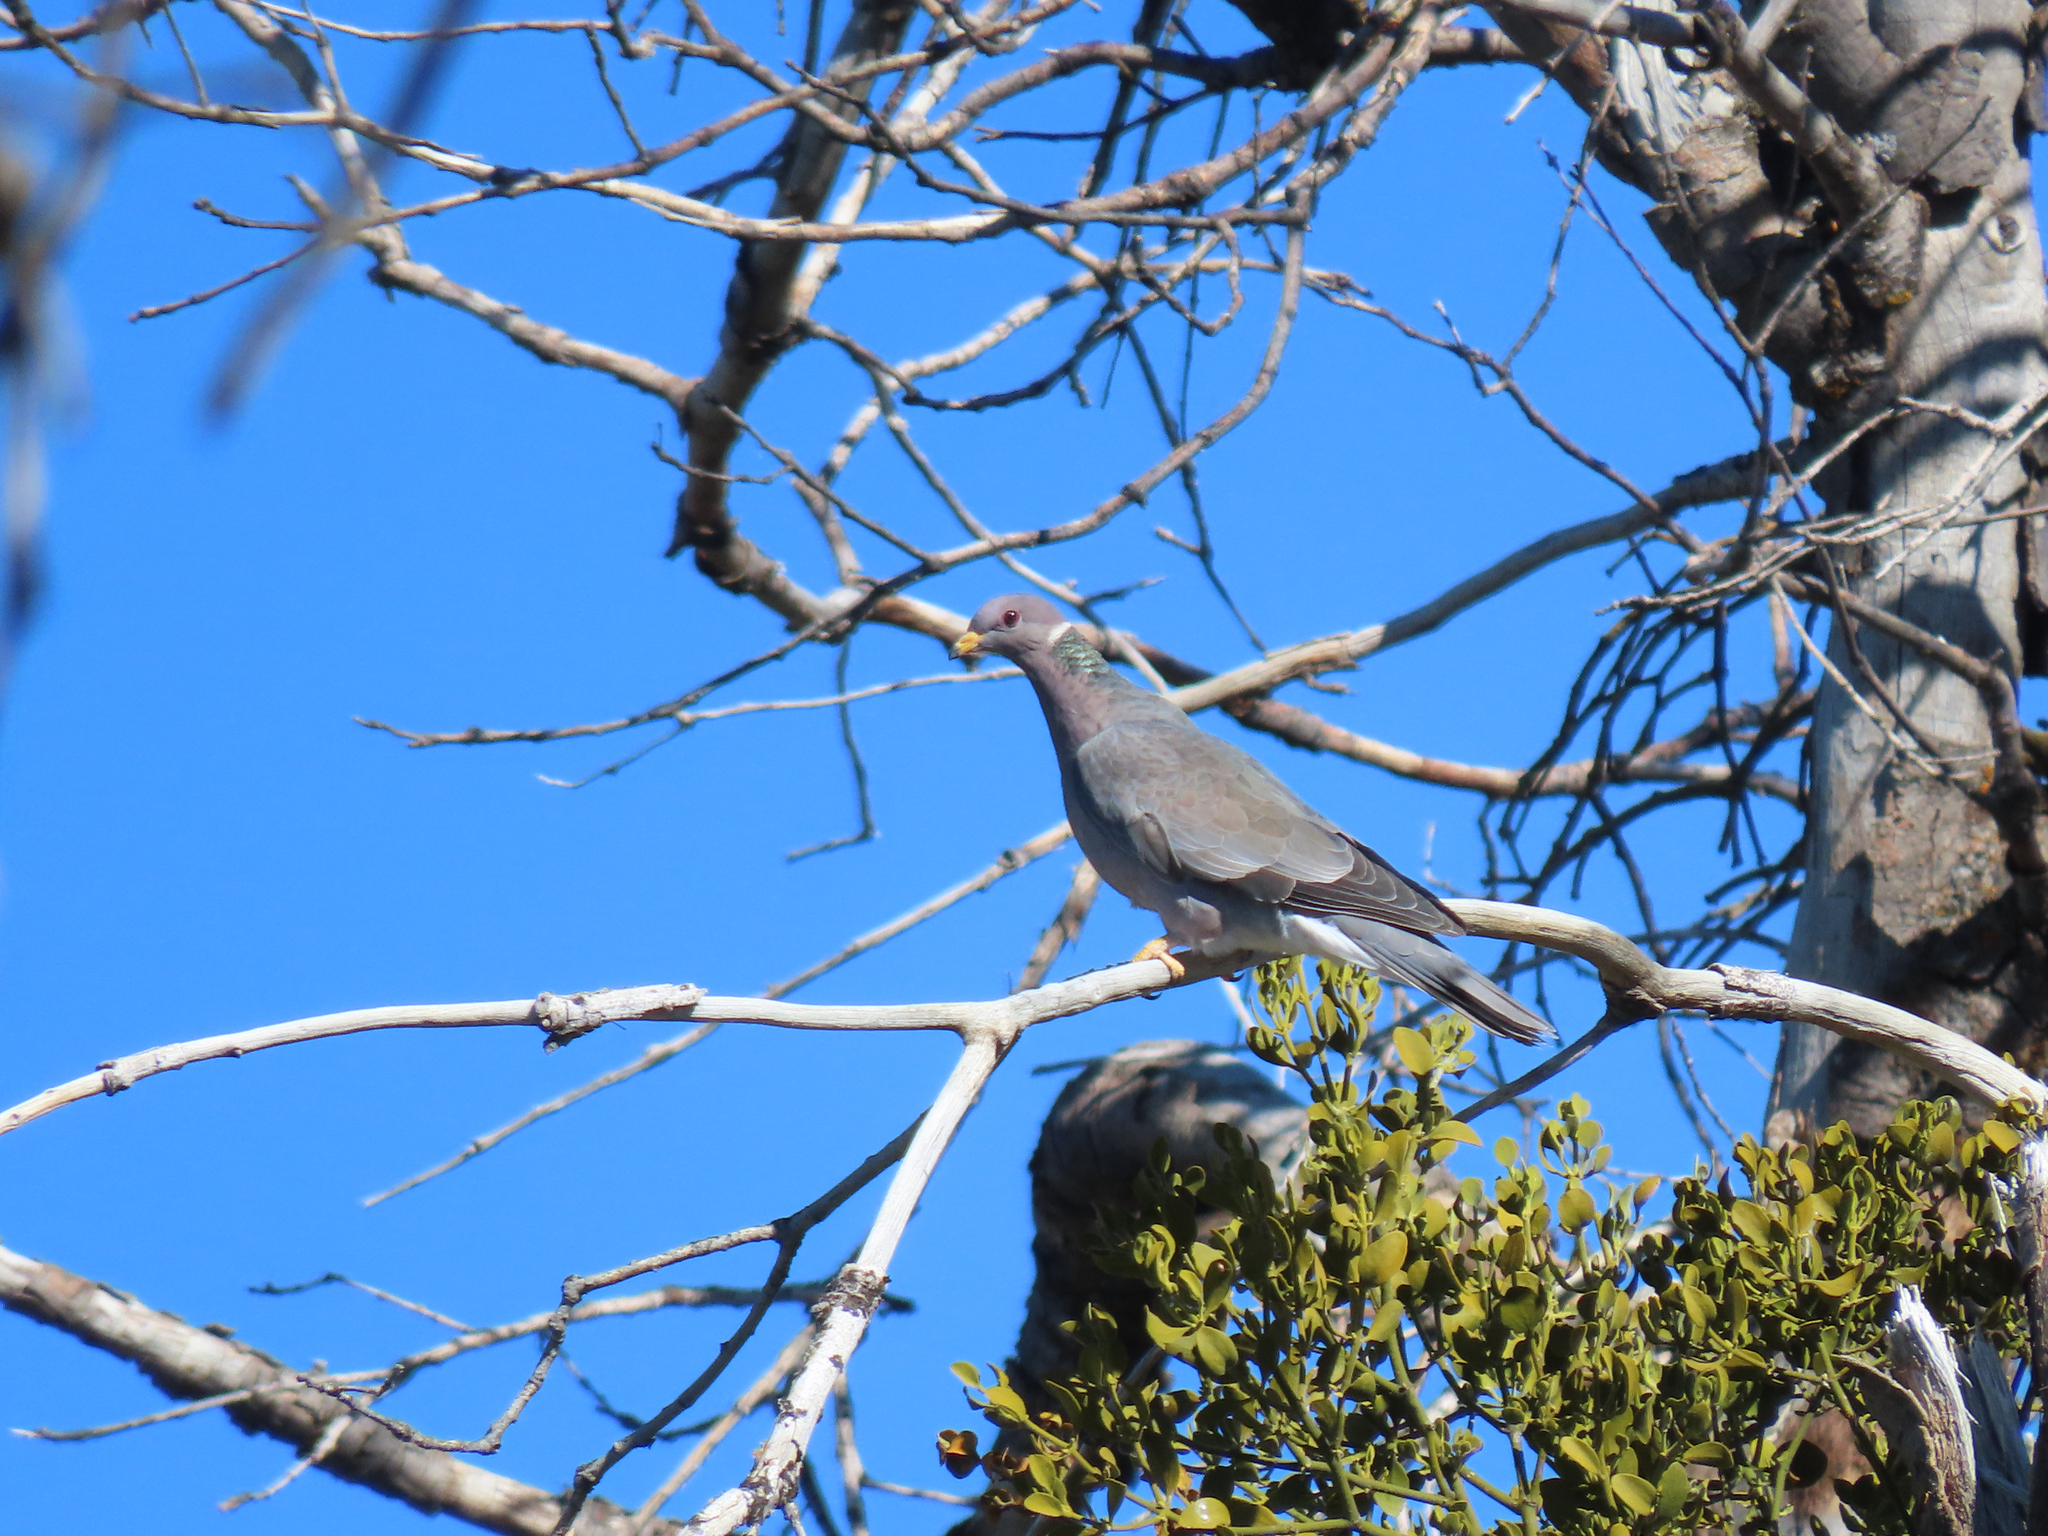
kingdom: Animalia
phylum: Chordata
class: Aves
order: Columbiformes
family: Columbidae
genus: Patagioenas
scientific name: Patagioenas fasciata
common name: Band-tailed pigeon
